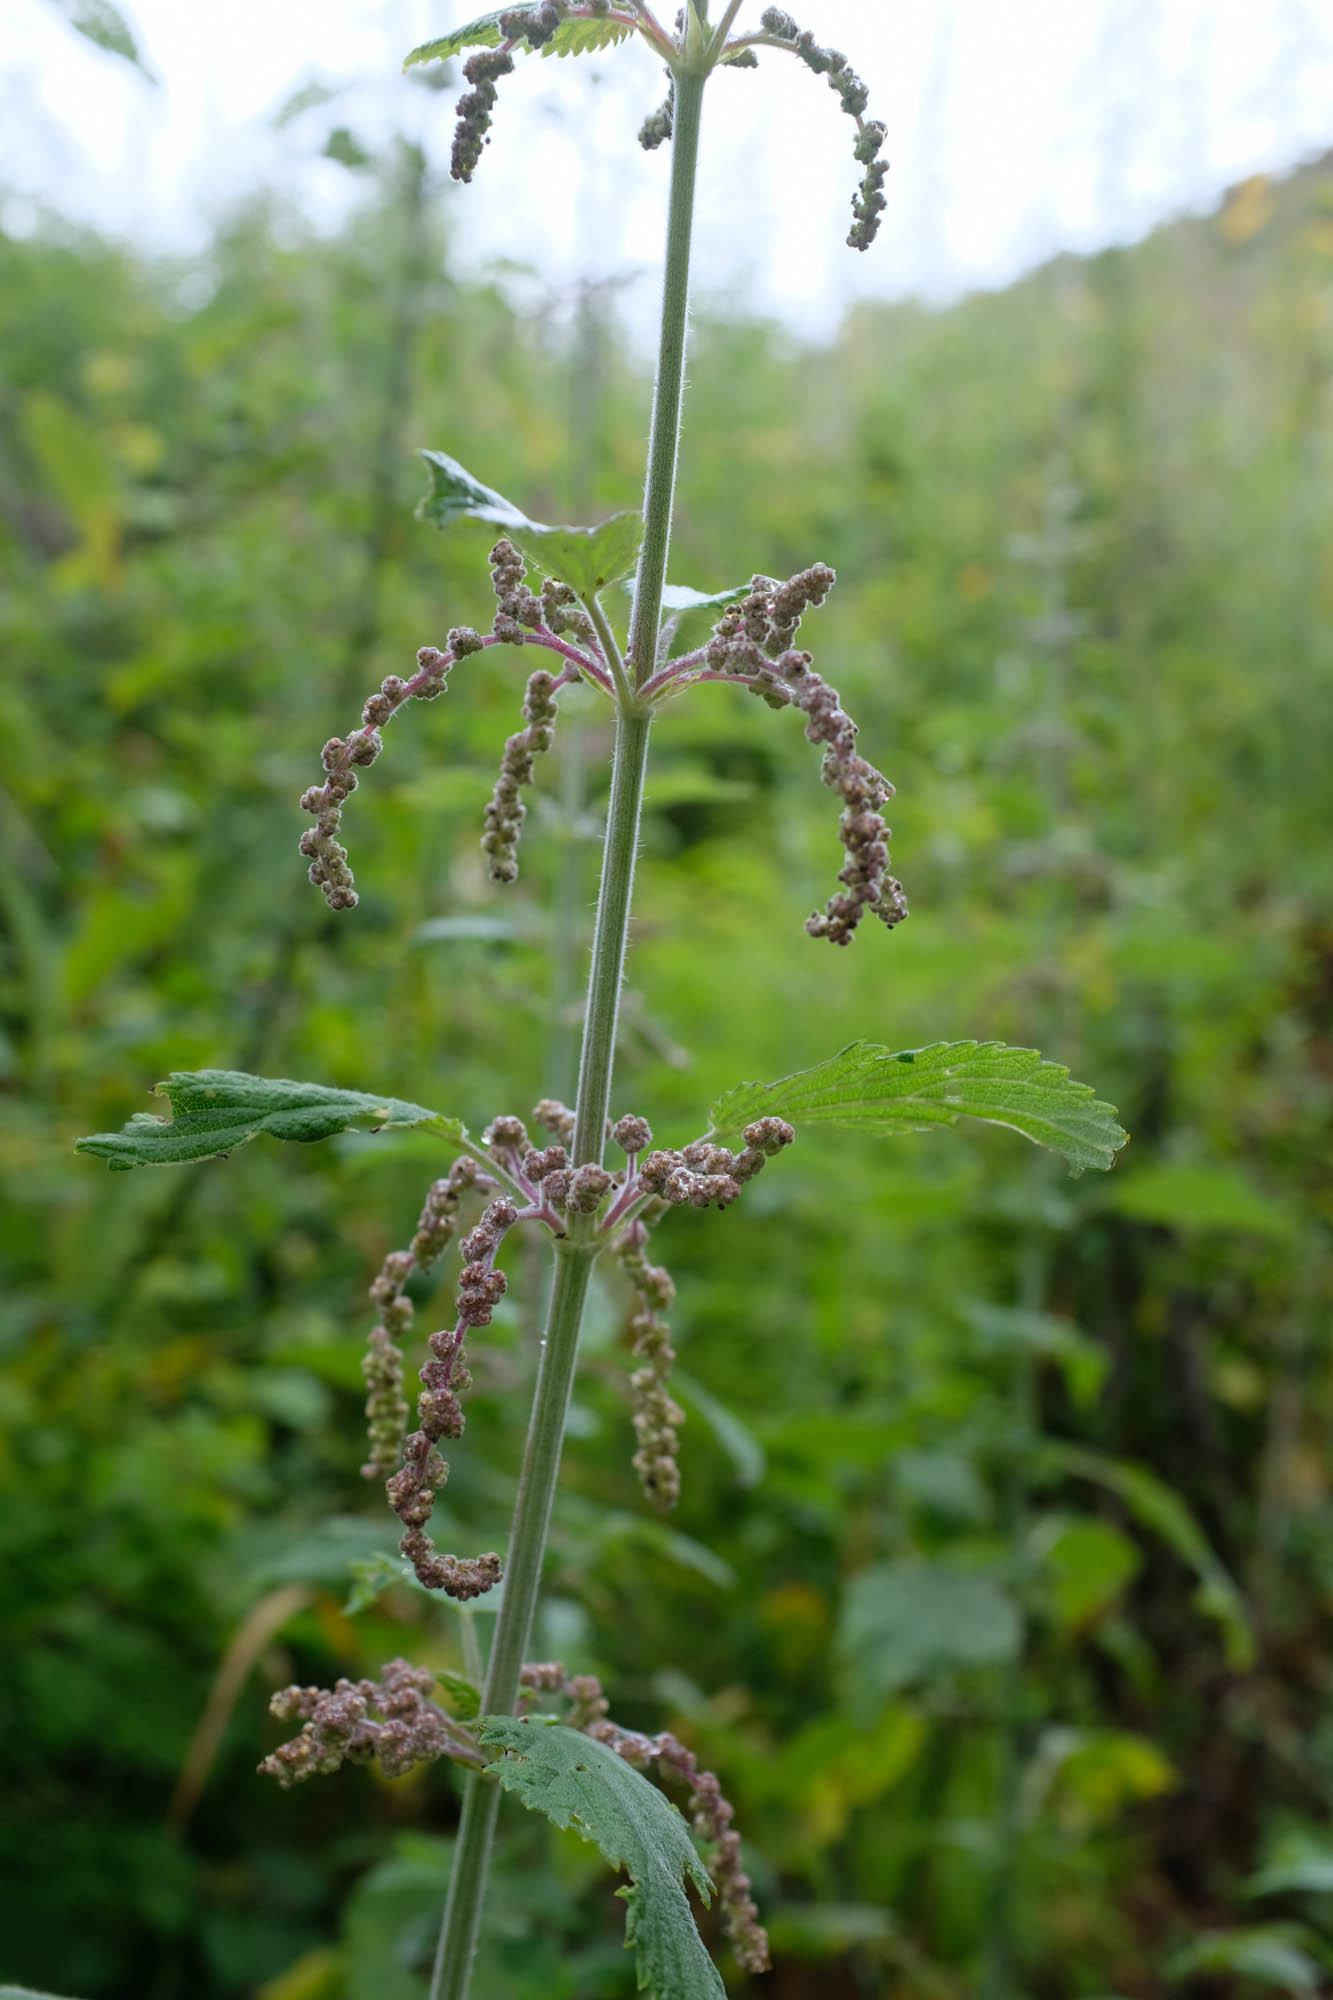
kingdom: Plantae
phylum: Tracheophyta
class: Magnoliopsida
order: Rosales
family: Urticaceae
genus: Urtica
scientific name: Urtica gracilis
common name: Slender stinging nettle
